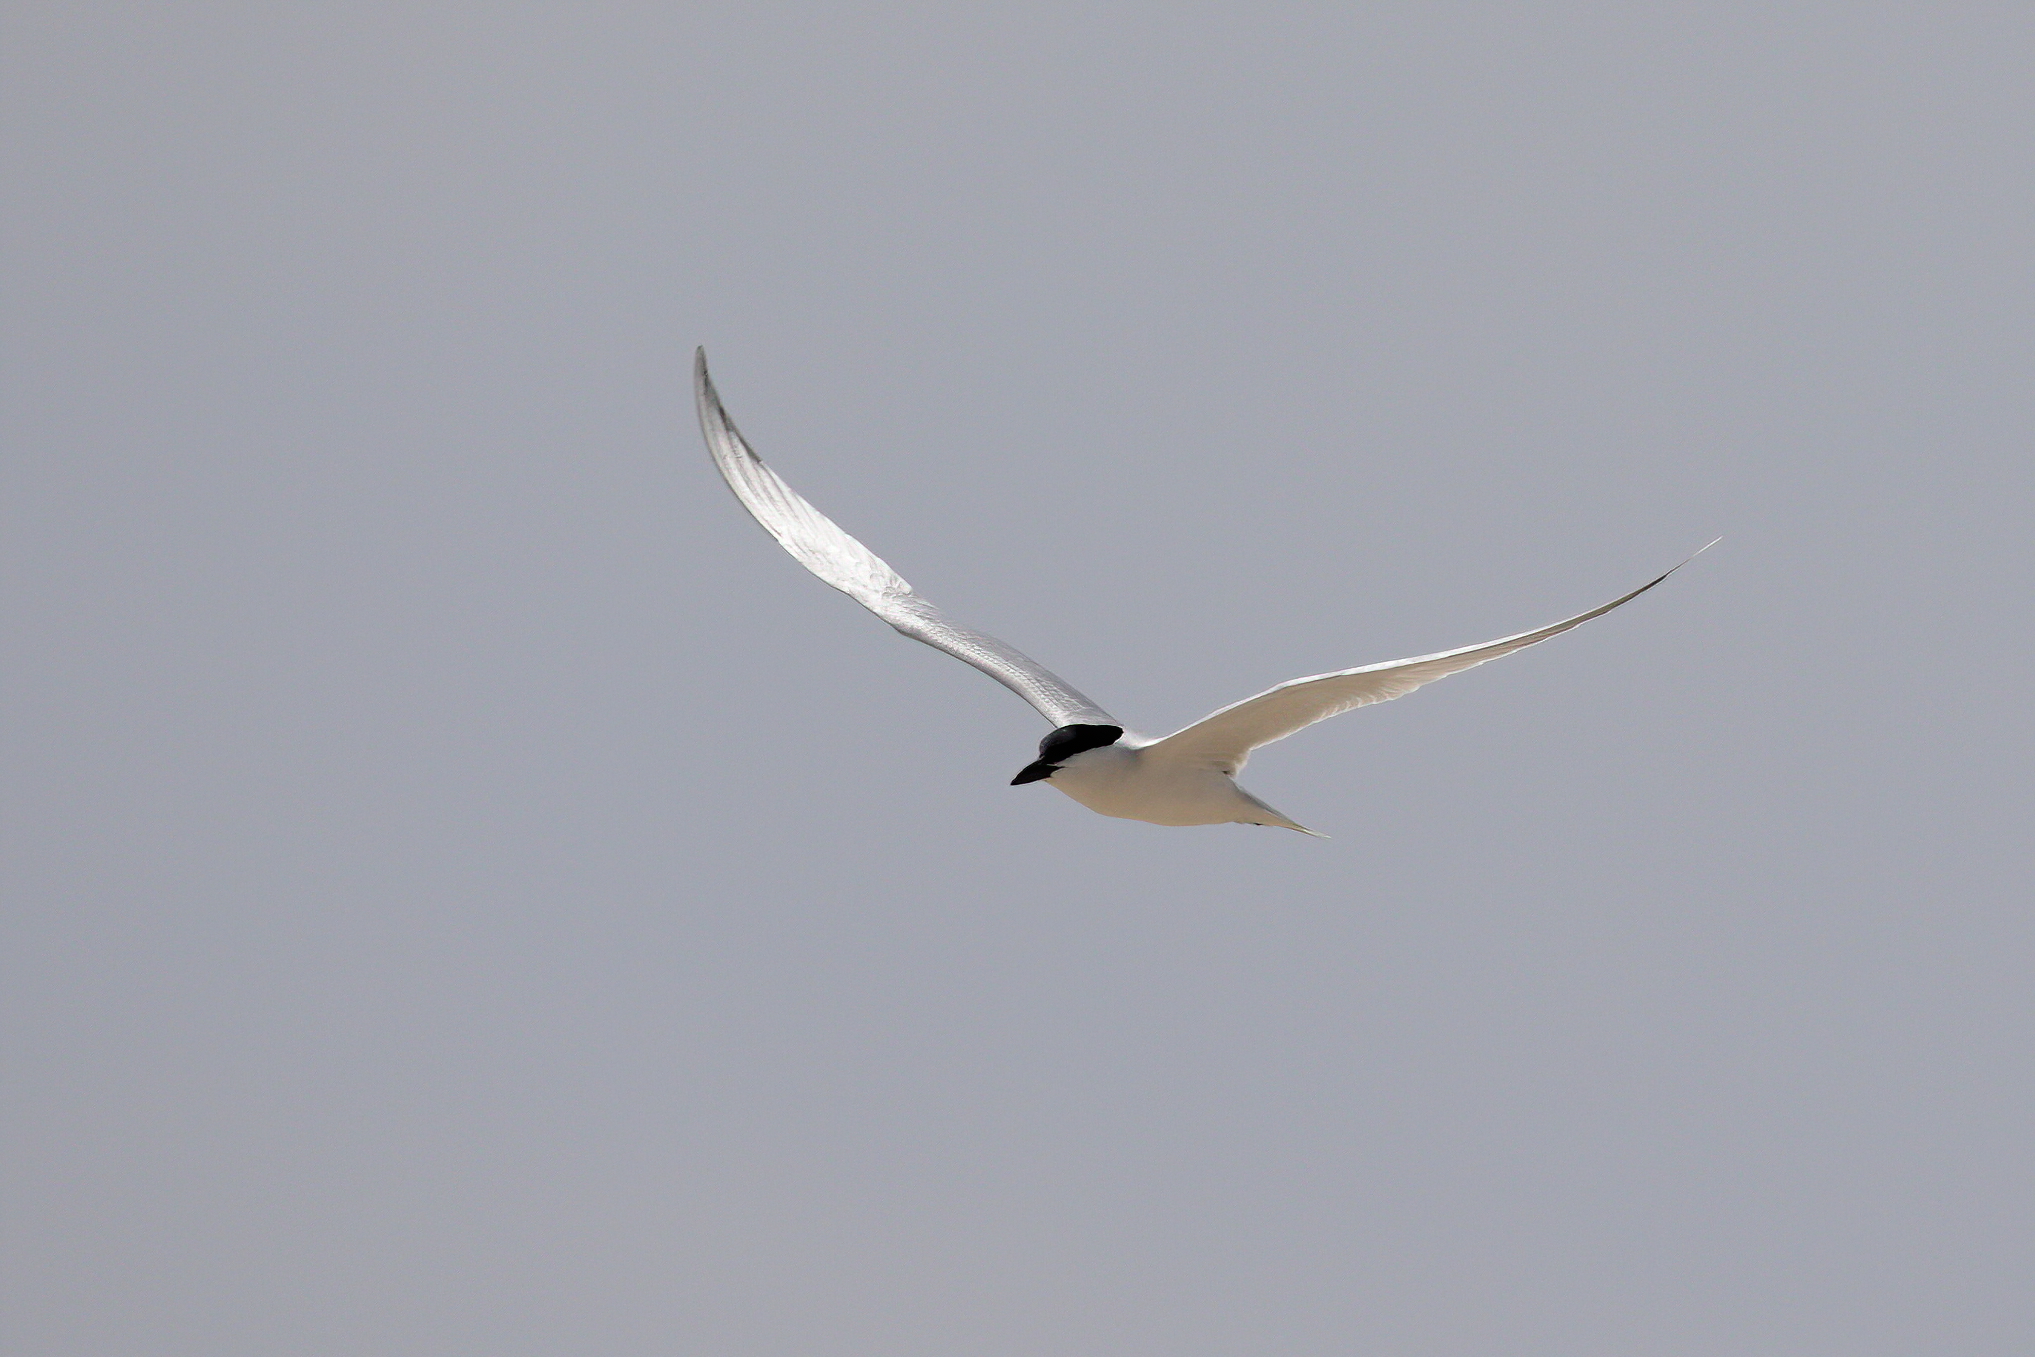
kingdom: Animalia
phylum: Chordata
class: Aves
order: Charadriiformes
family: Laridae
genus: Gelochelidon
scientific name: Gelochelidon nilotica
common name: Gull-billed tern
